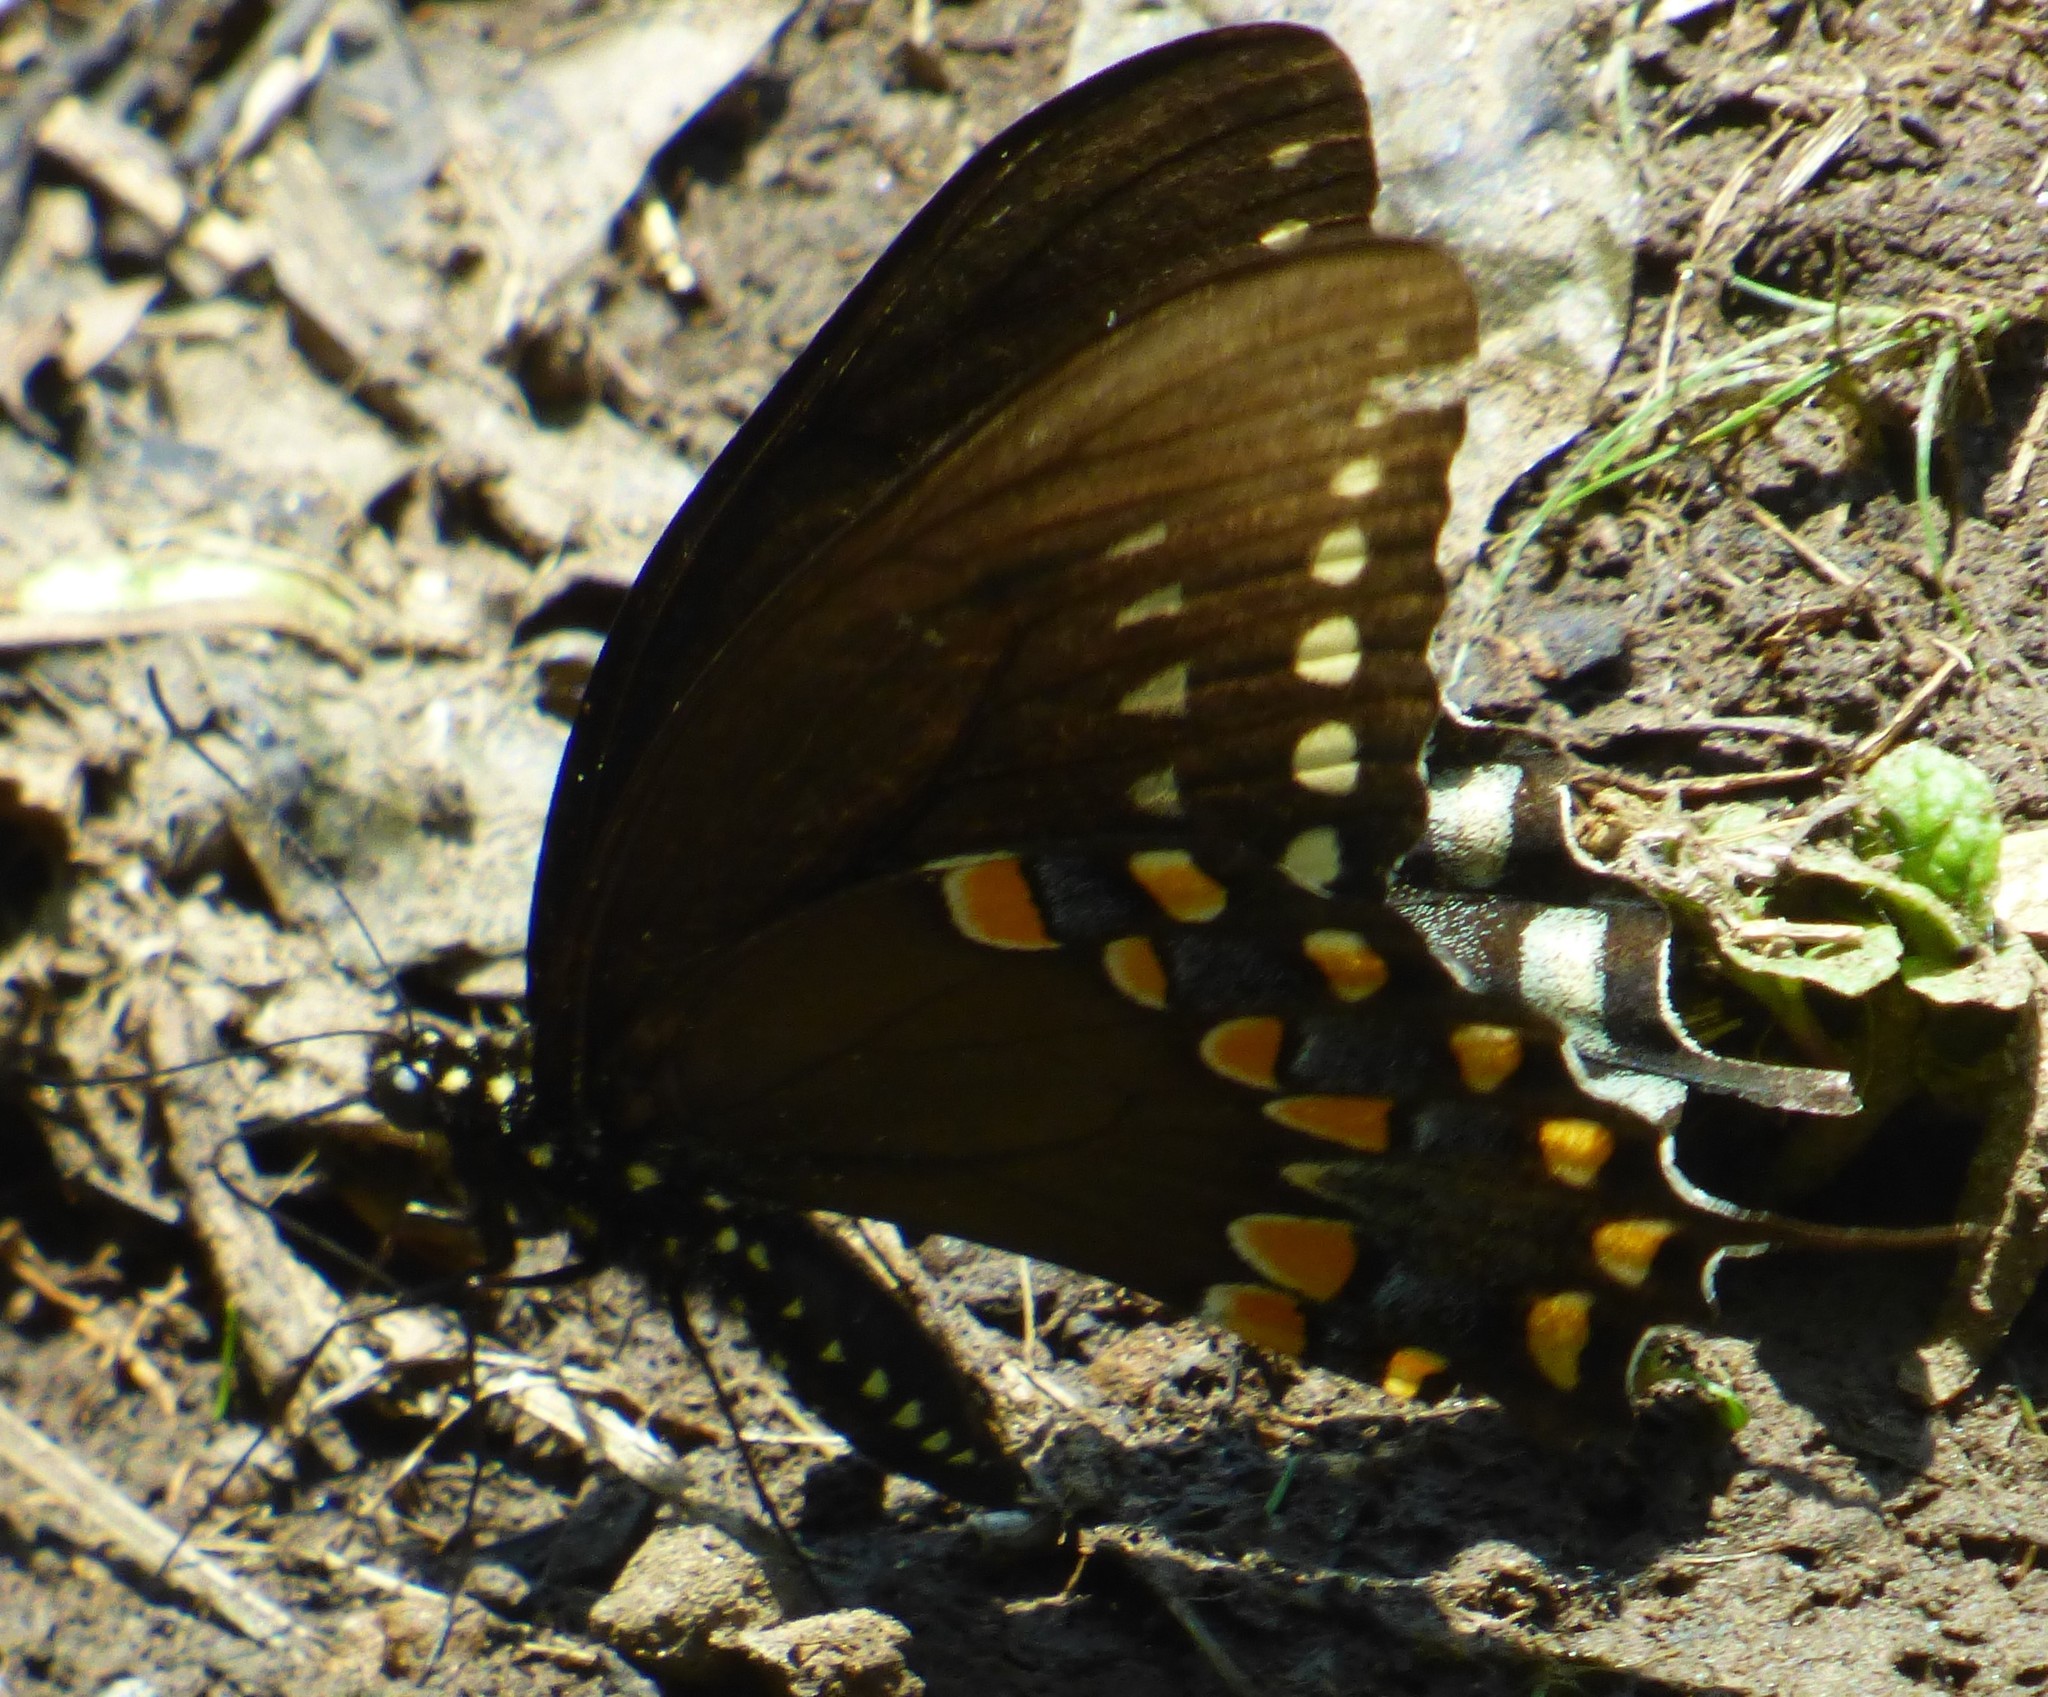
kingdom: Animalia
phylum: Arthropoda
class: Insecta
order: Lepidoptera
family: Papilionidae
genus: Papilio
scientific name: Papilio troilus
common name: Spicebush swallowtail
